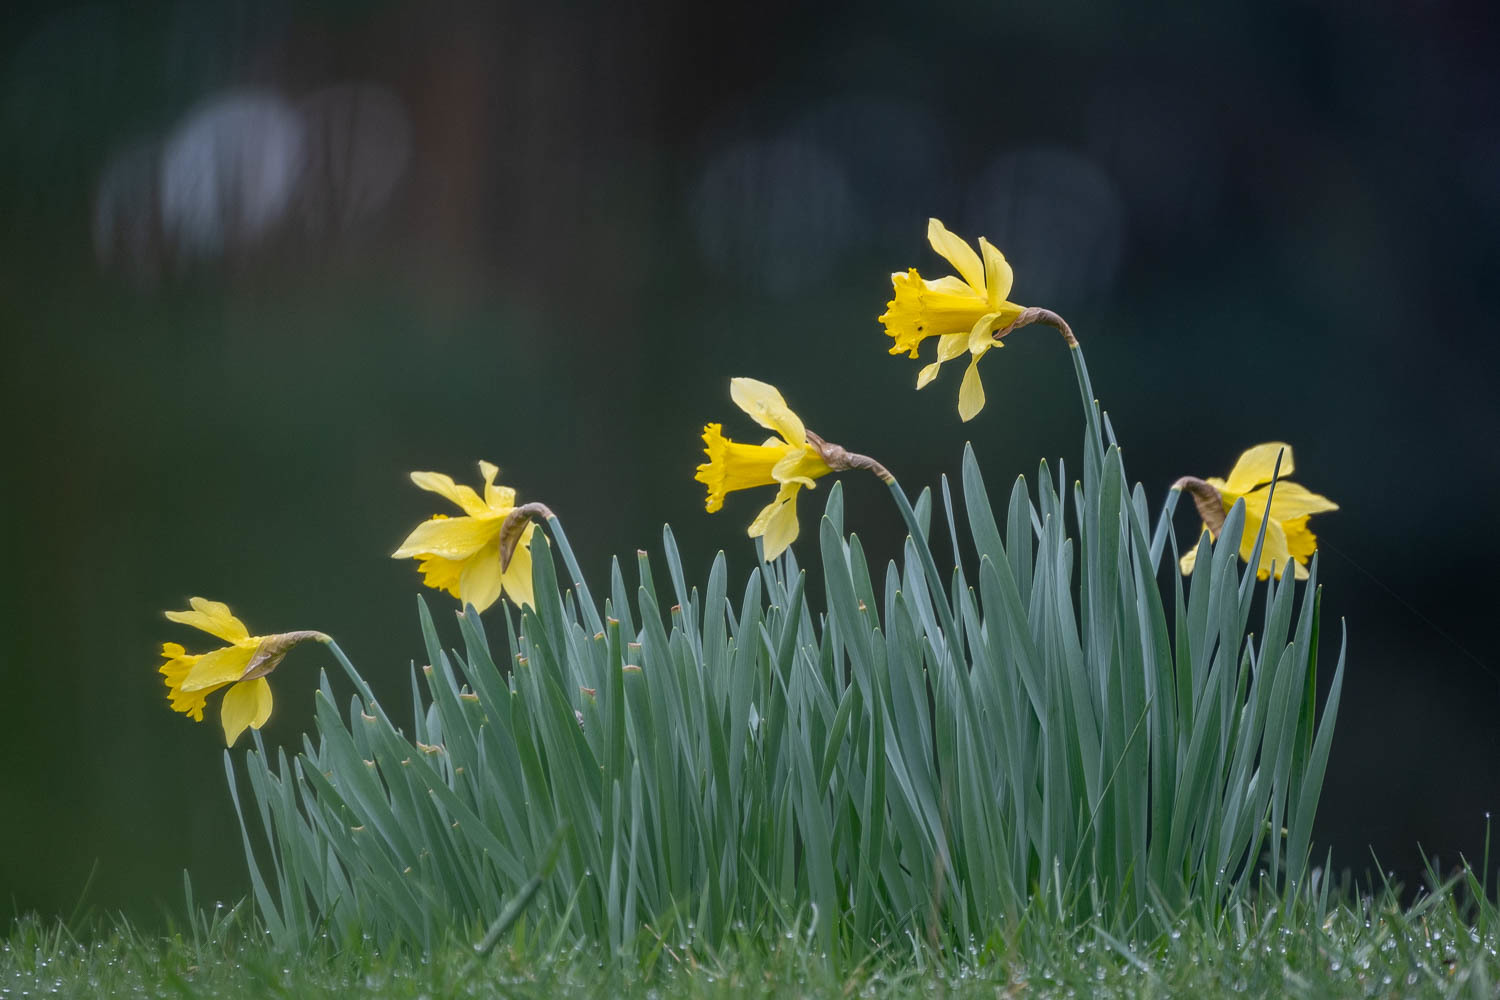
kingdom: Plantae
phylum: Tracheophyta
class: Liliopsida
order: Asparagales
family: Amaryllidaceae
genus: Narcissus
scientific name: Narcissus pseudonarcissus
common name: Daffodil
